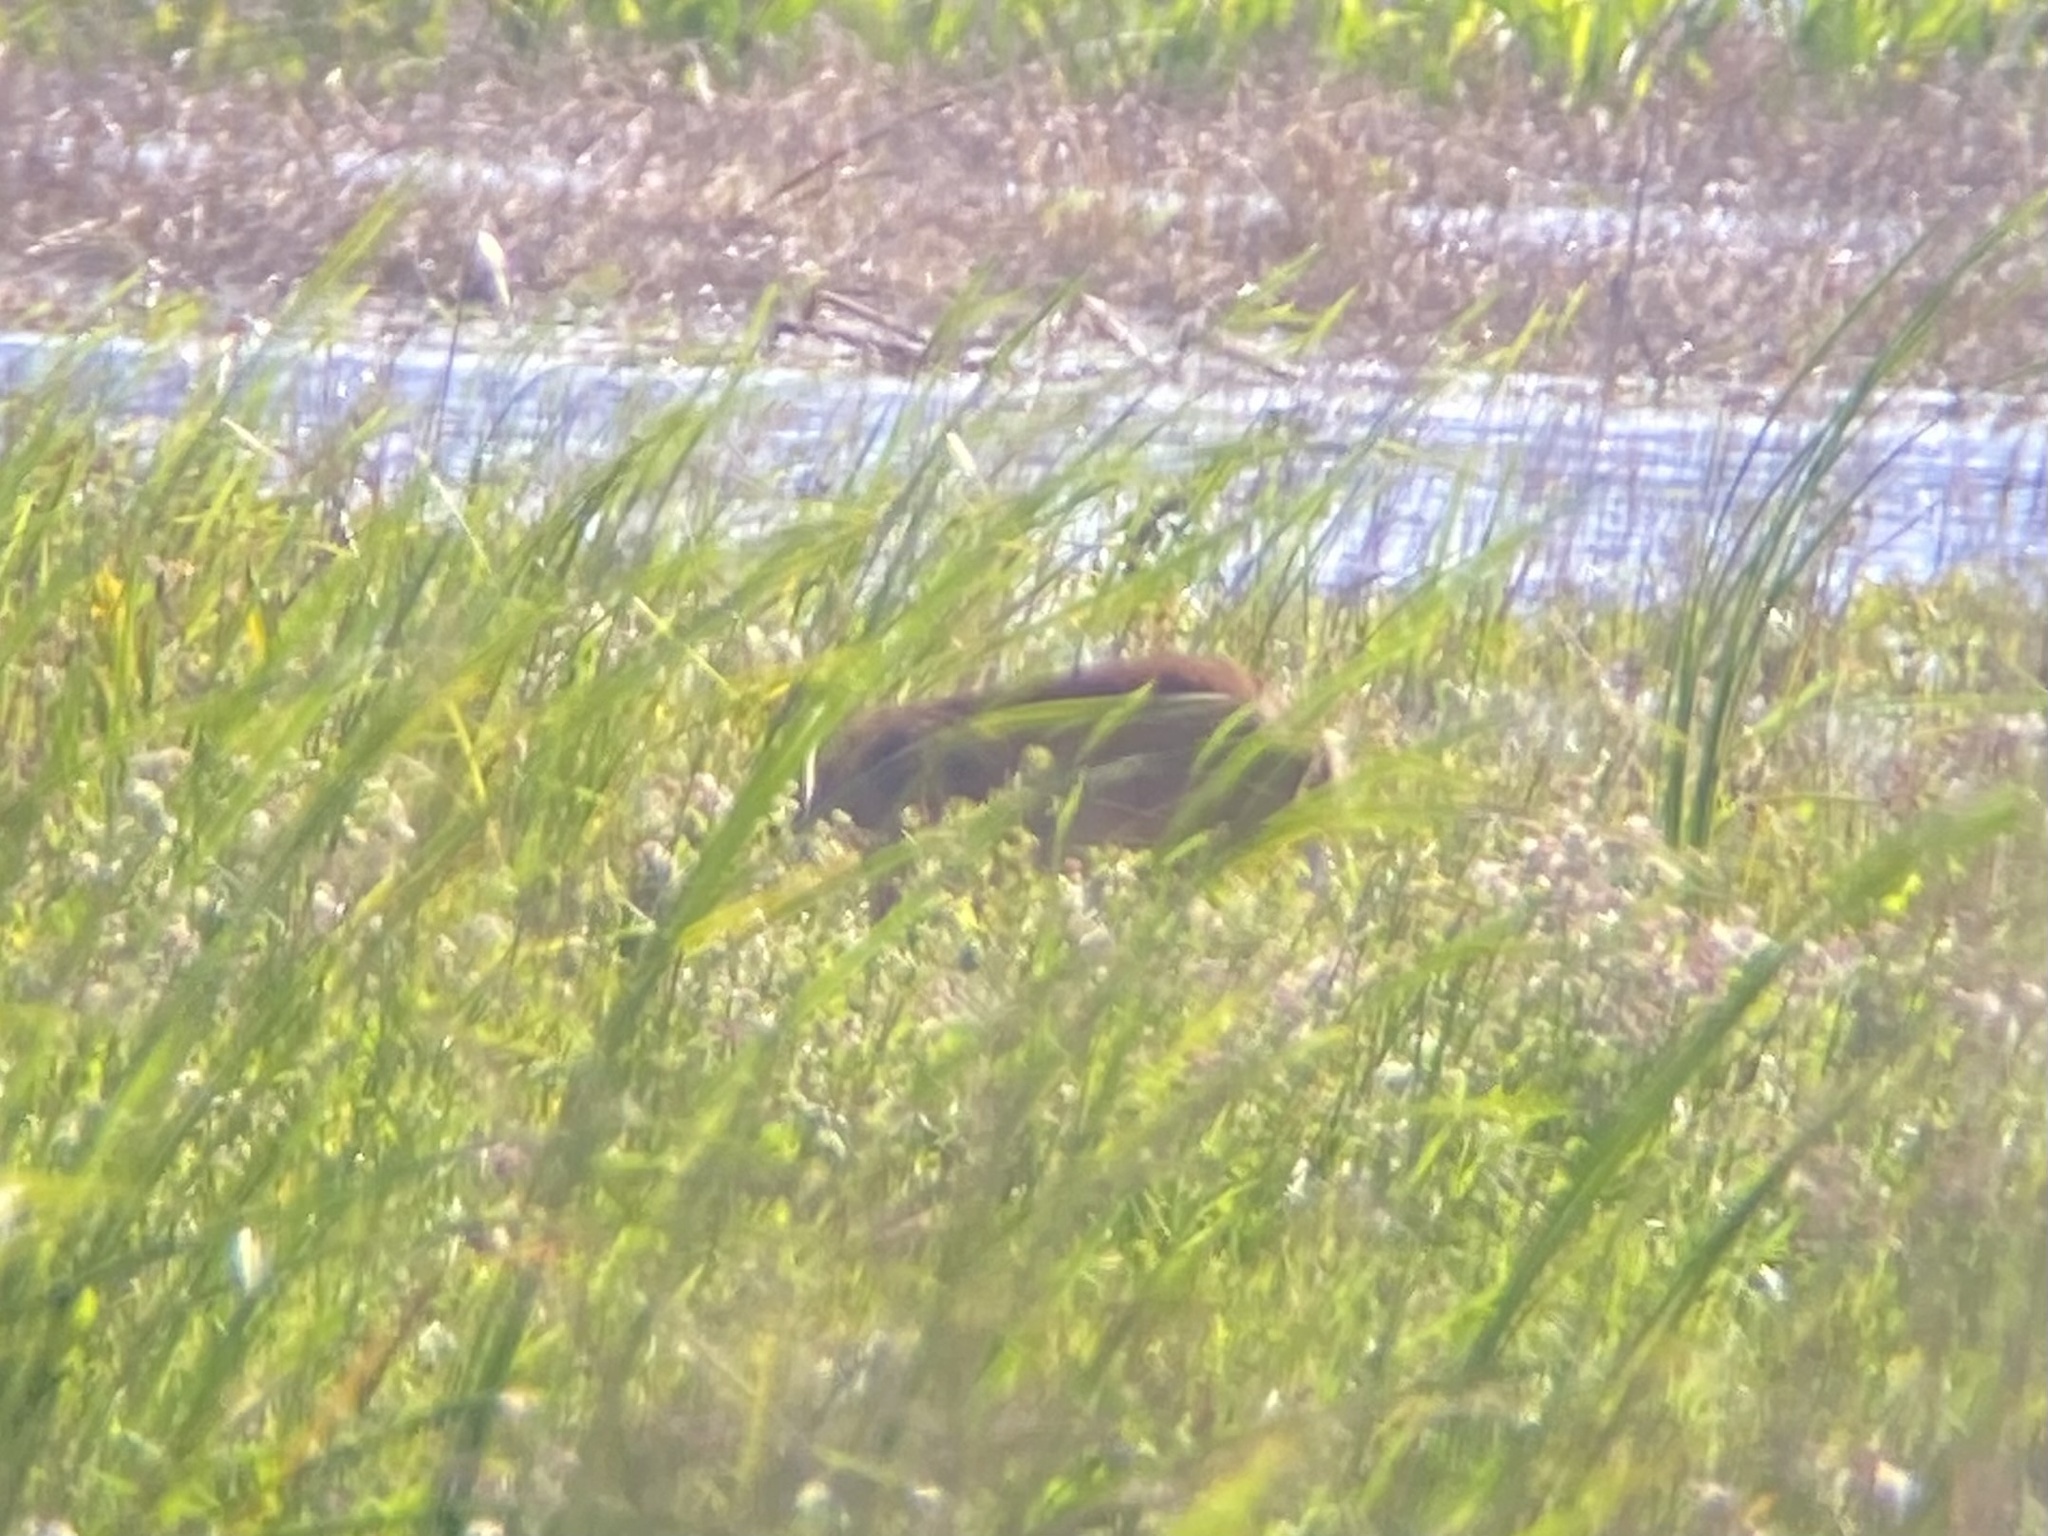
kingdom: Animalia
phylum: Chordata
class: Mammalia
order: Artiodactyla
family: Cervidae
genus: Odocoileus
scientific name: Odocoileus virginianus
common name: White-tailed deer
